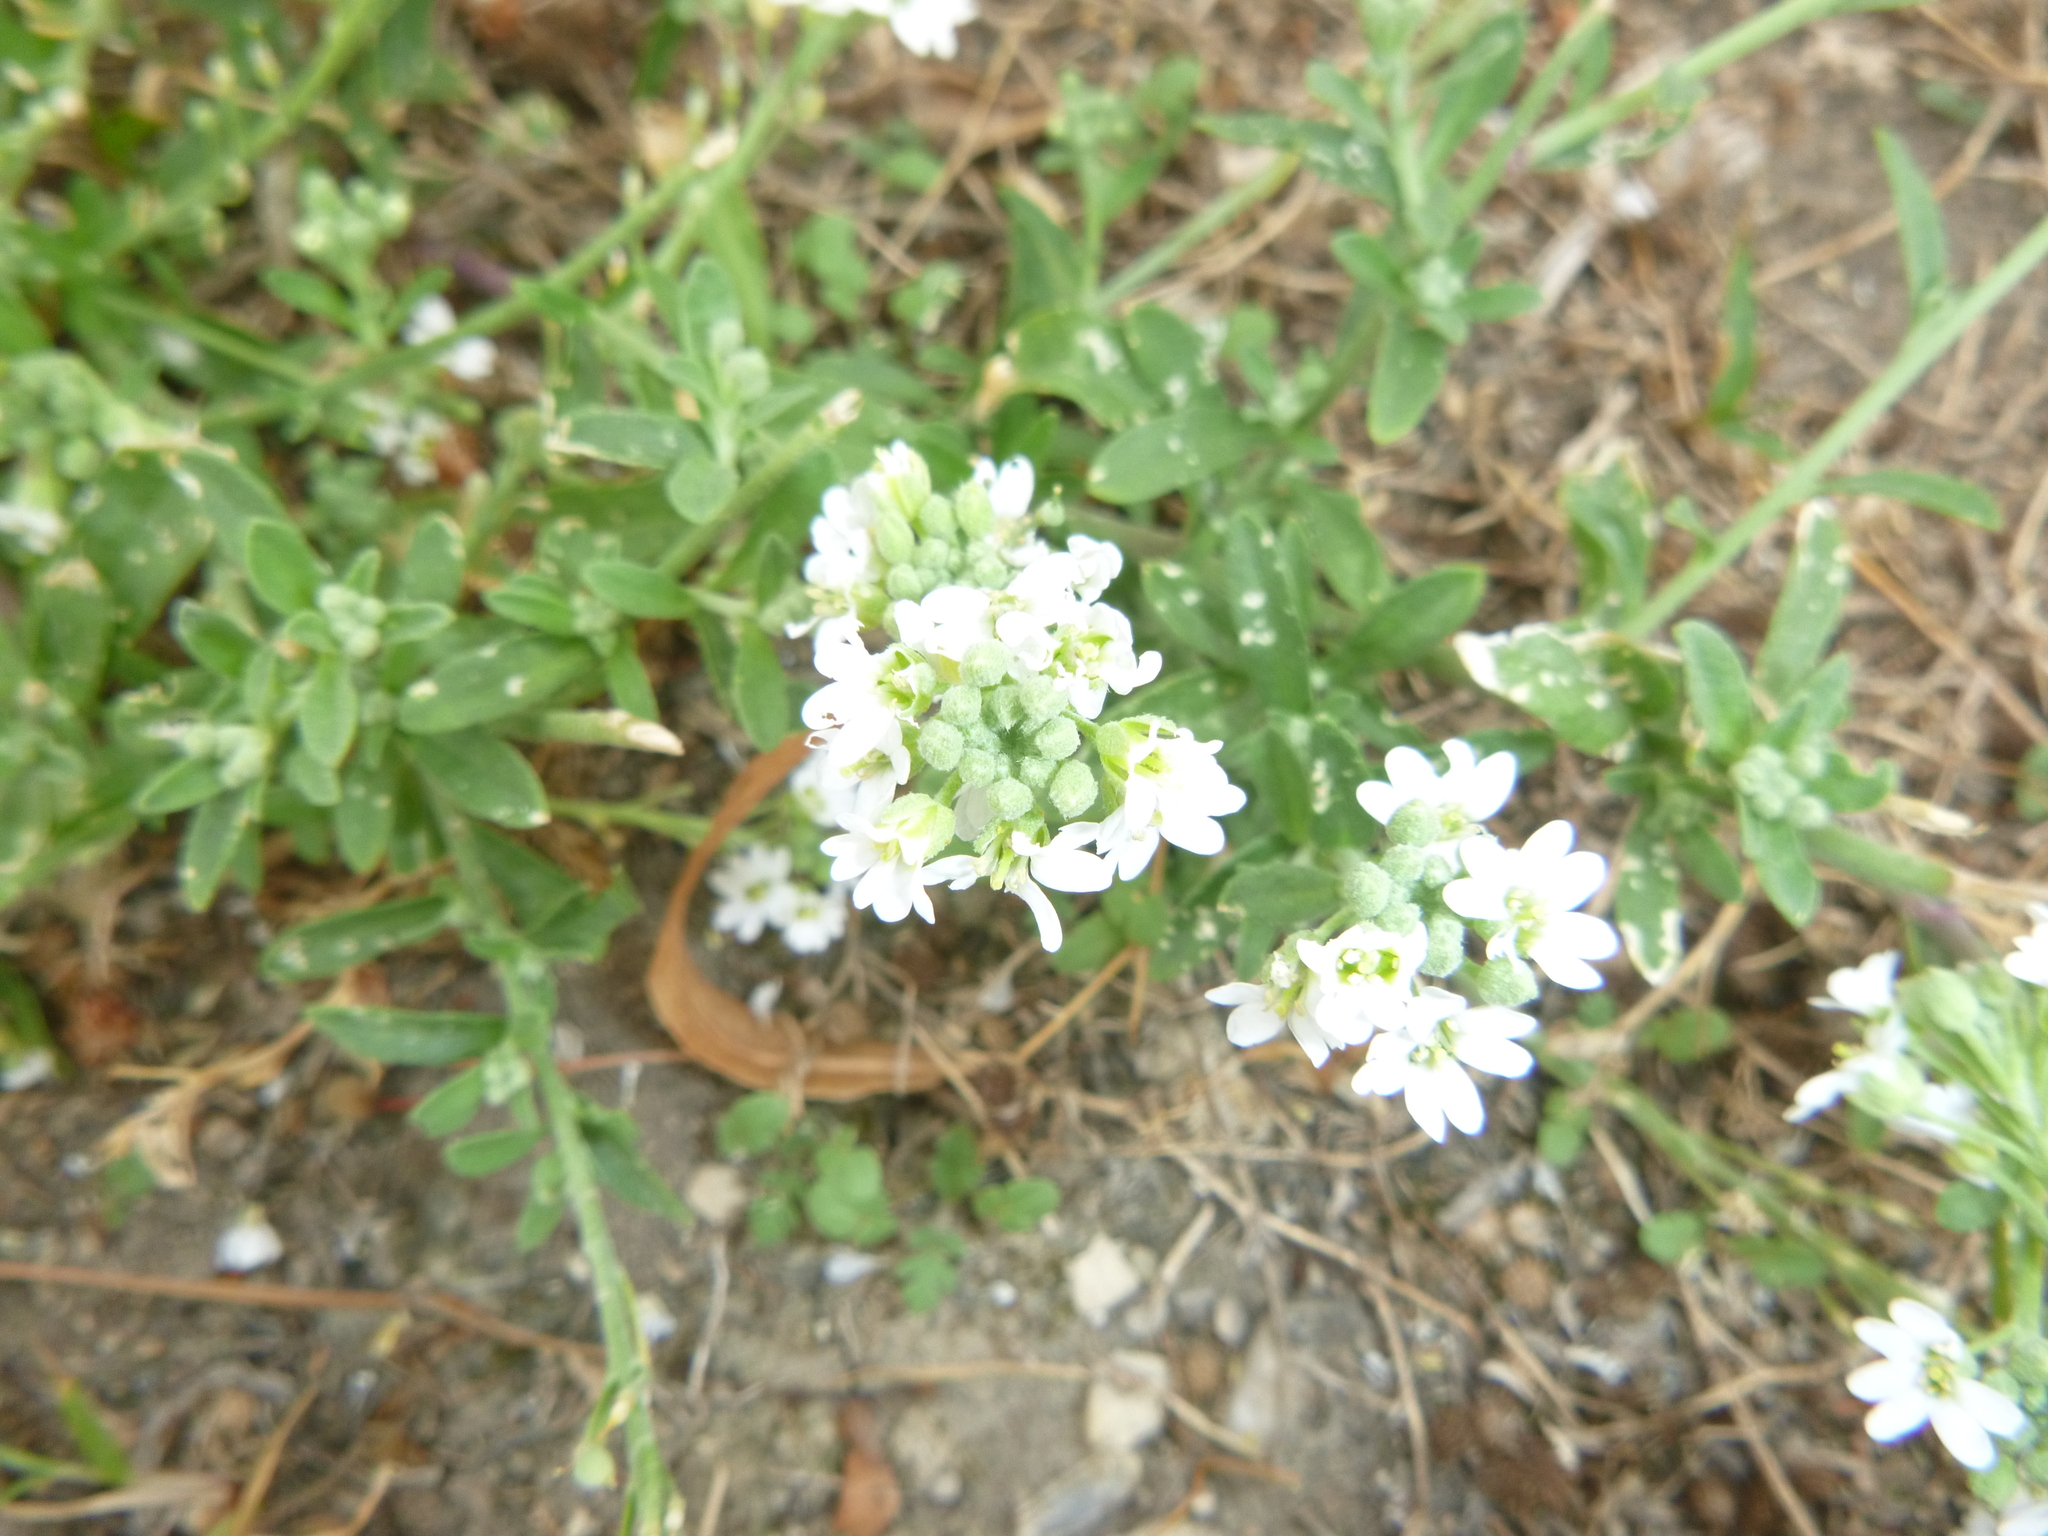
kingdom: Plantae
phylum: Tracheophyta
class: Magnoliopsida
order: Brassicales
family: Brassicaceae
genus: Berteroa
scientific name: Berteroa incana
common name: Hoary alison
